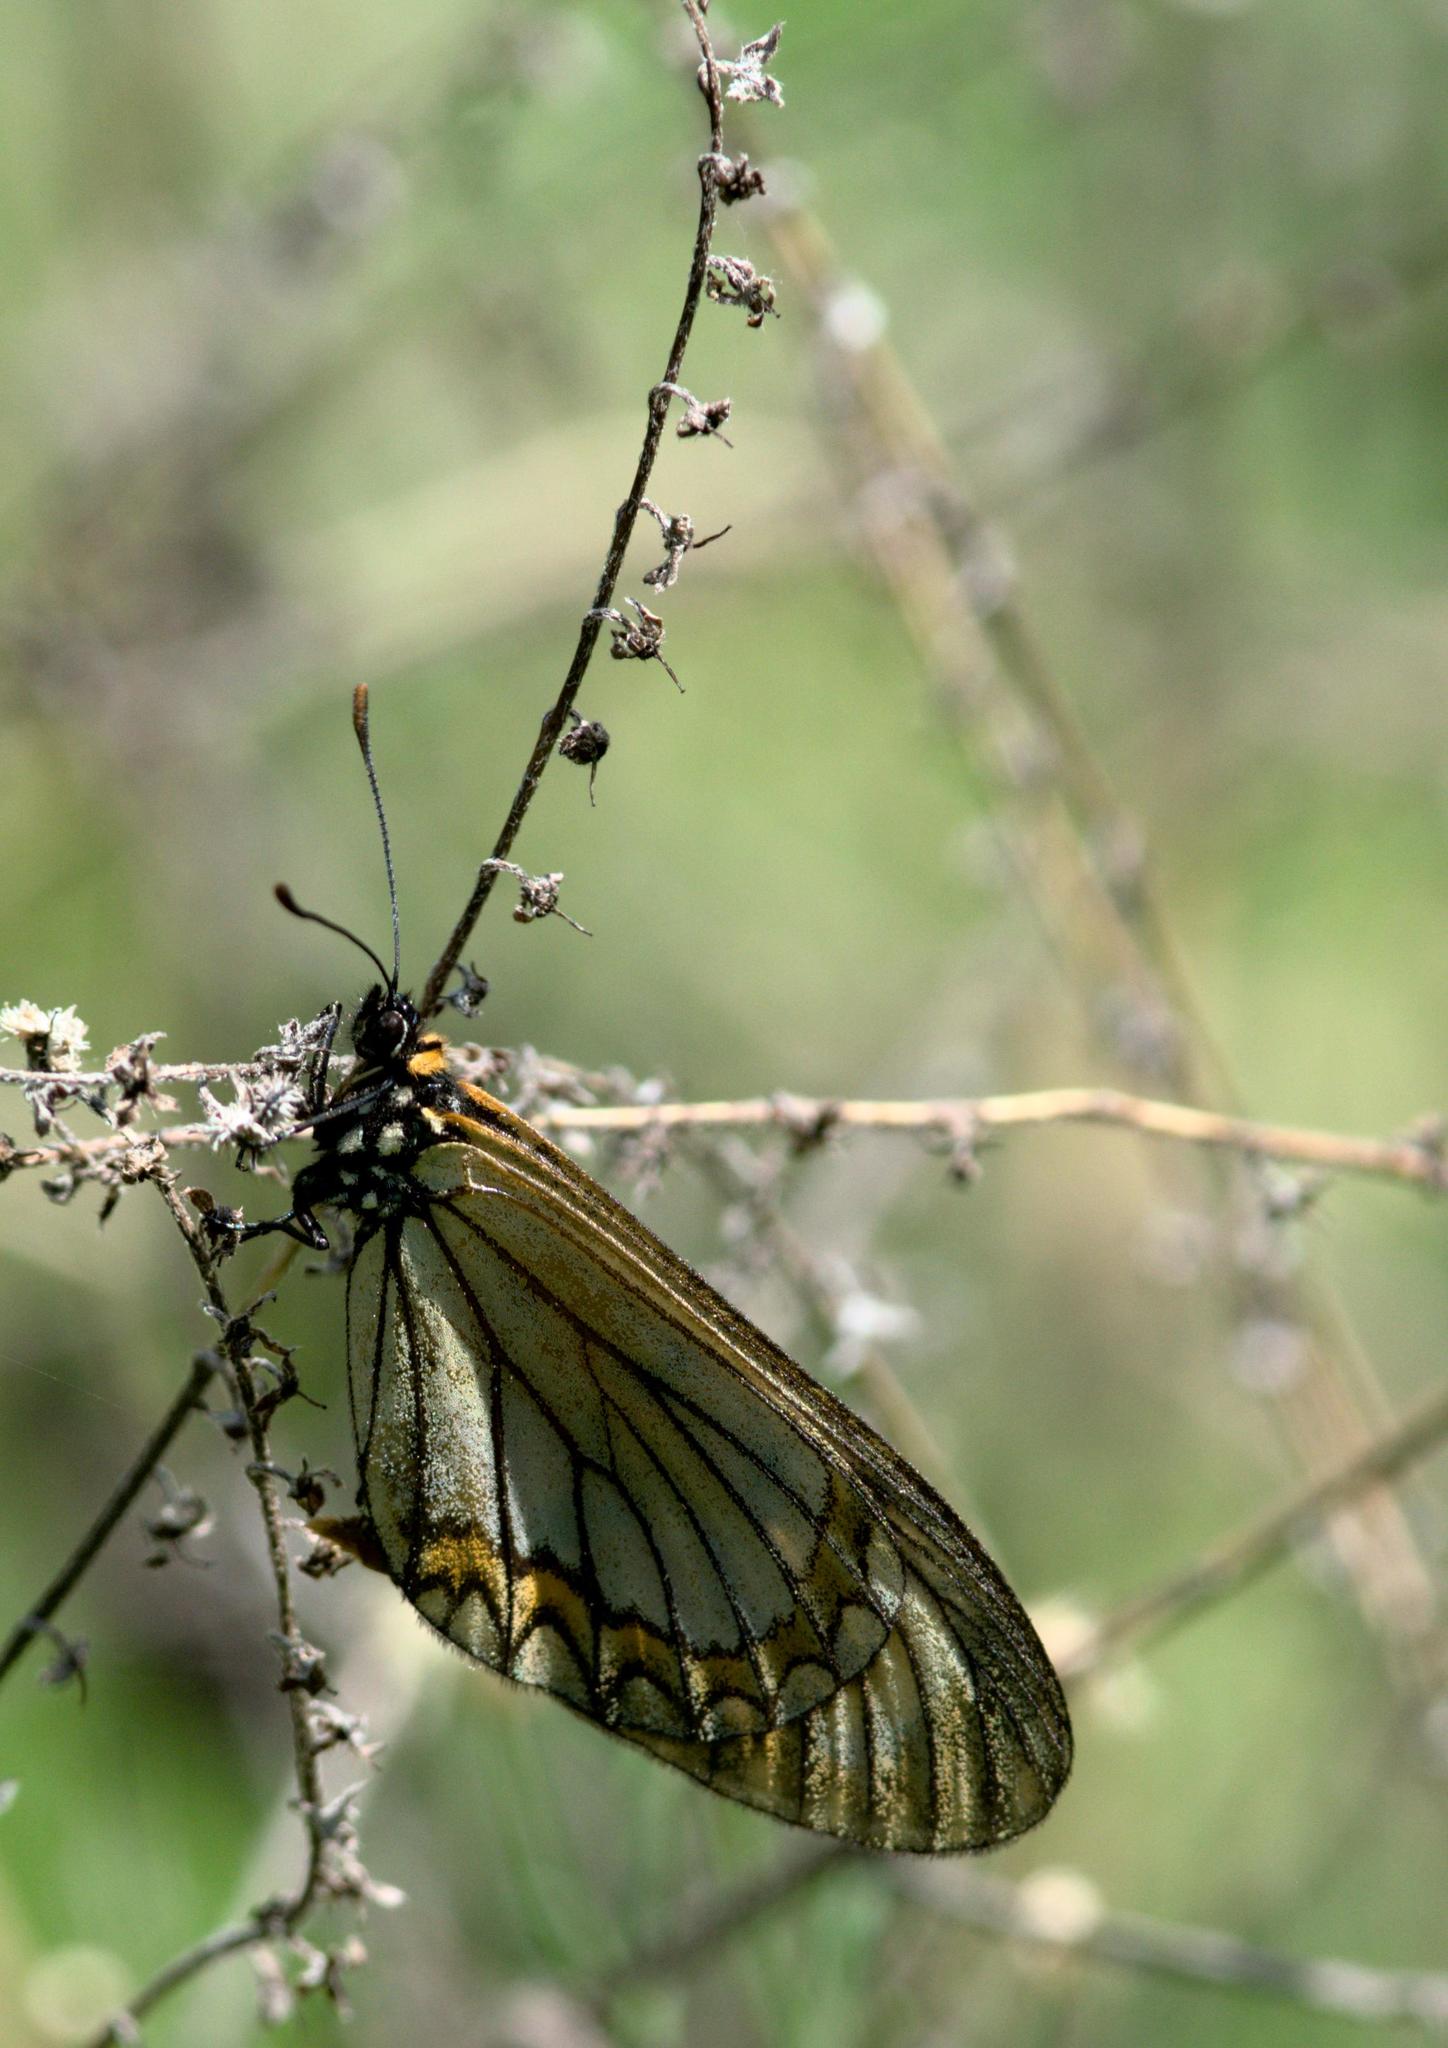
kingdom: Animalia
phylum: Arthropoda
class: Insecta
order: Lepidoptera
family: Nymphalidae
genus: Acraea
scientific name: Acraea Telchinia issoria
